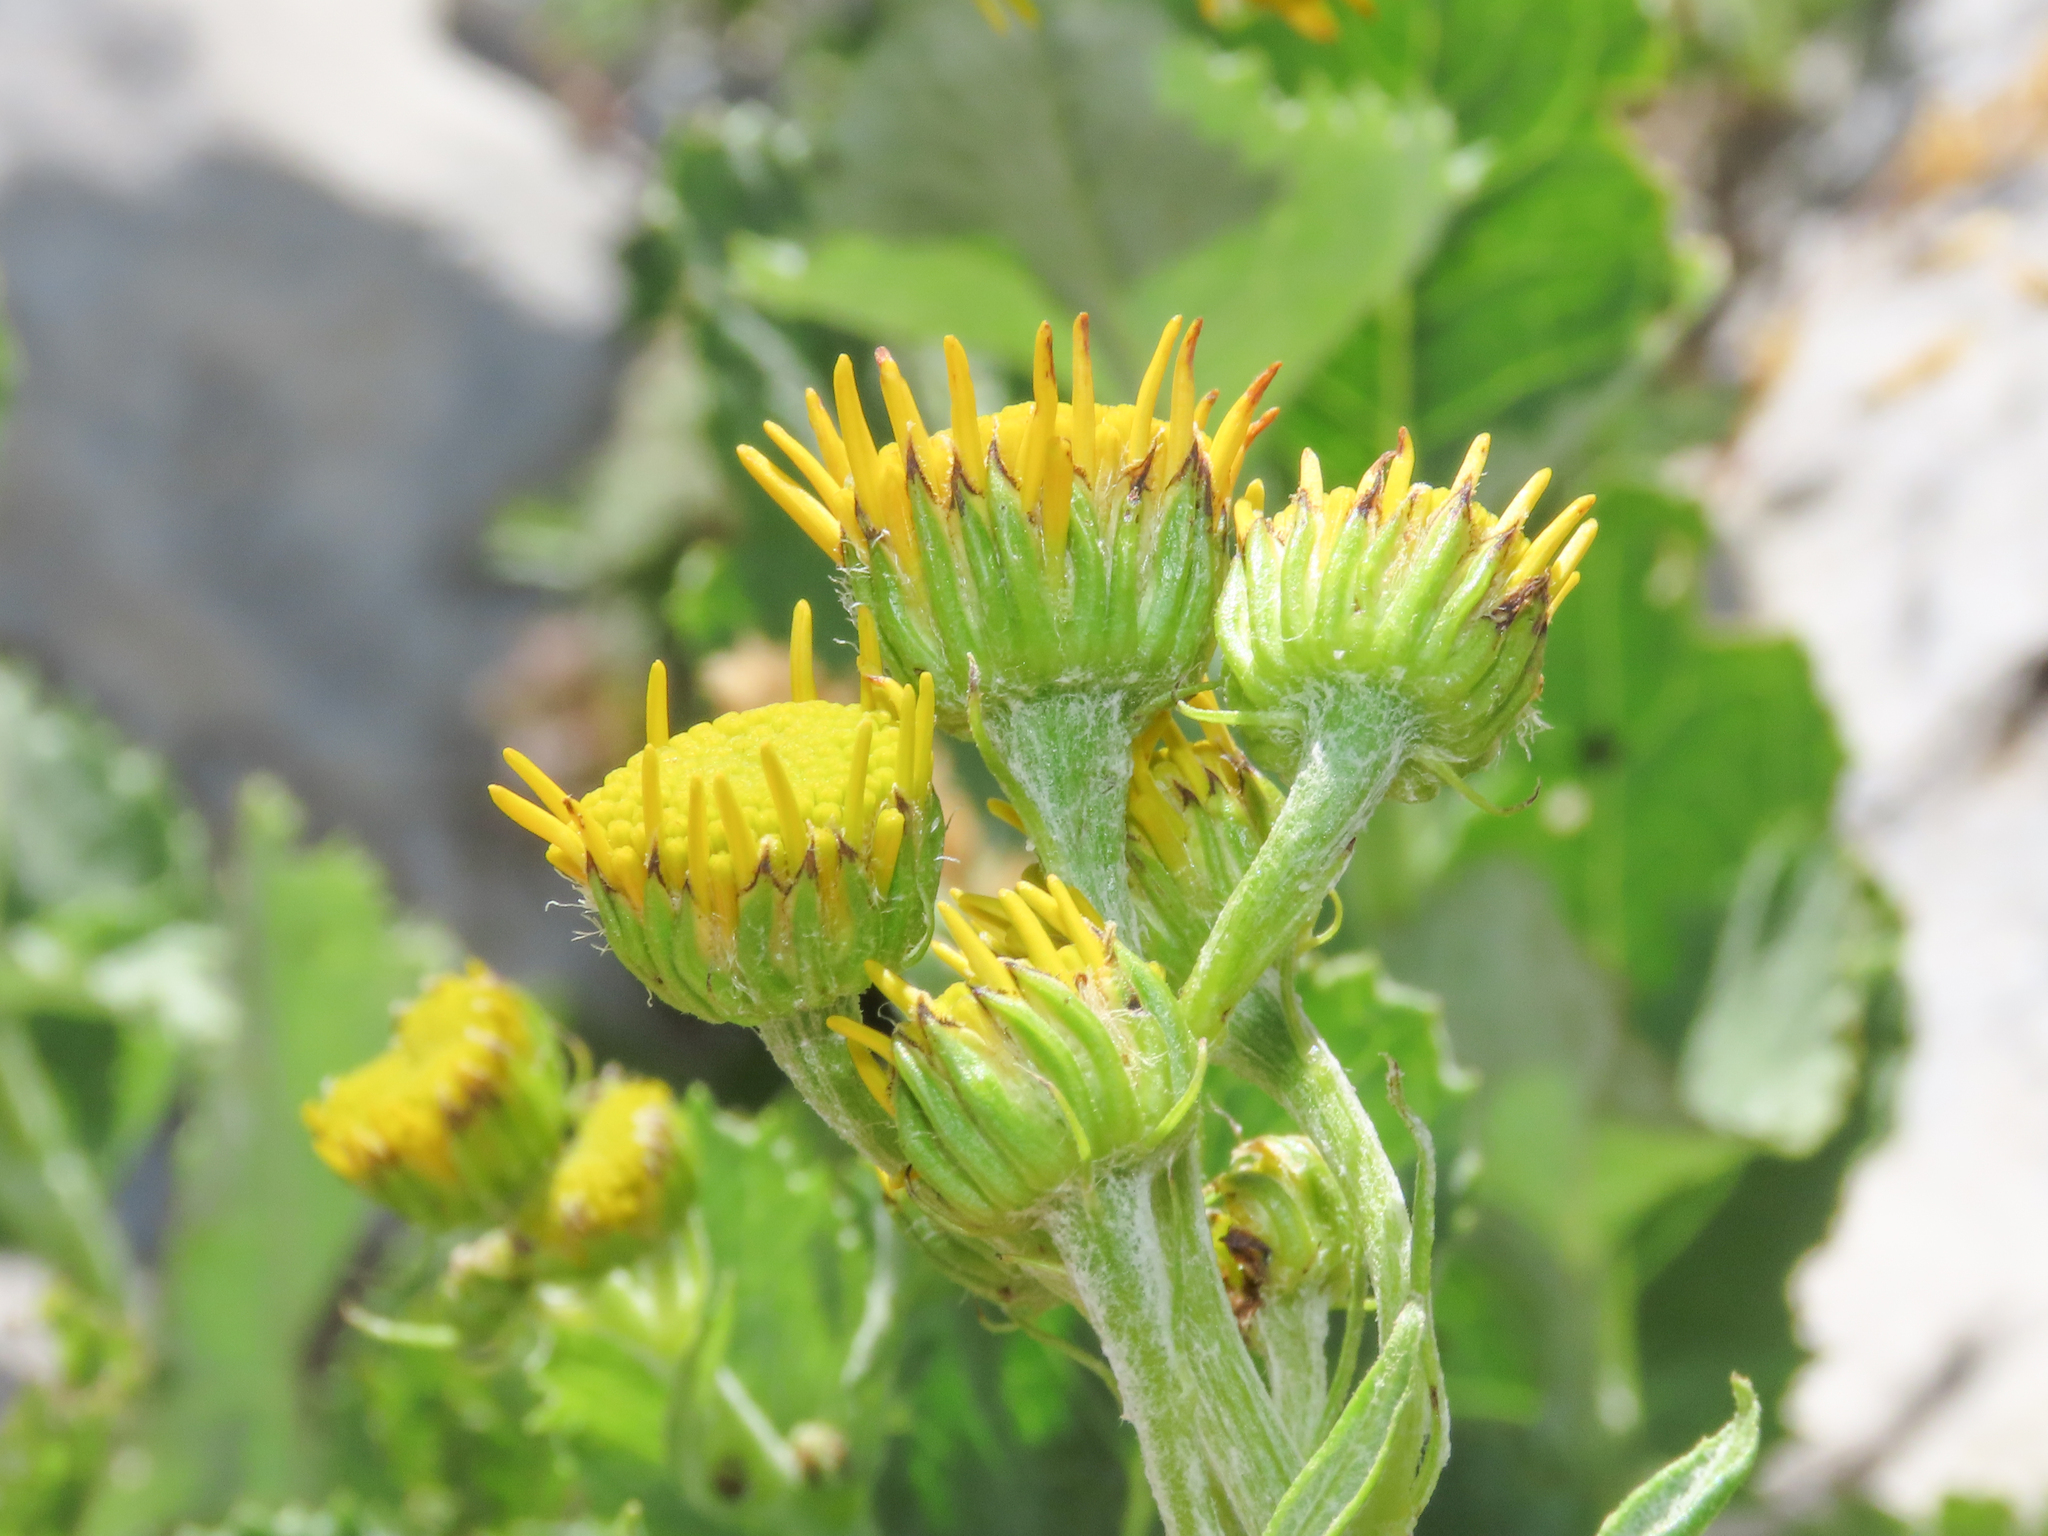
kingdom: Plantae
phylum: Tracheophyta
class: Magnoliopsida
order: Asterales
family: Asteraceae
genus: Jacobaea
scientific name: Jacobaea alpina
